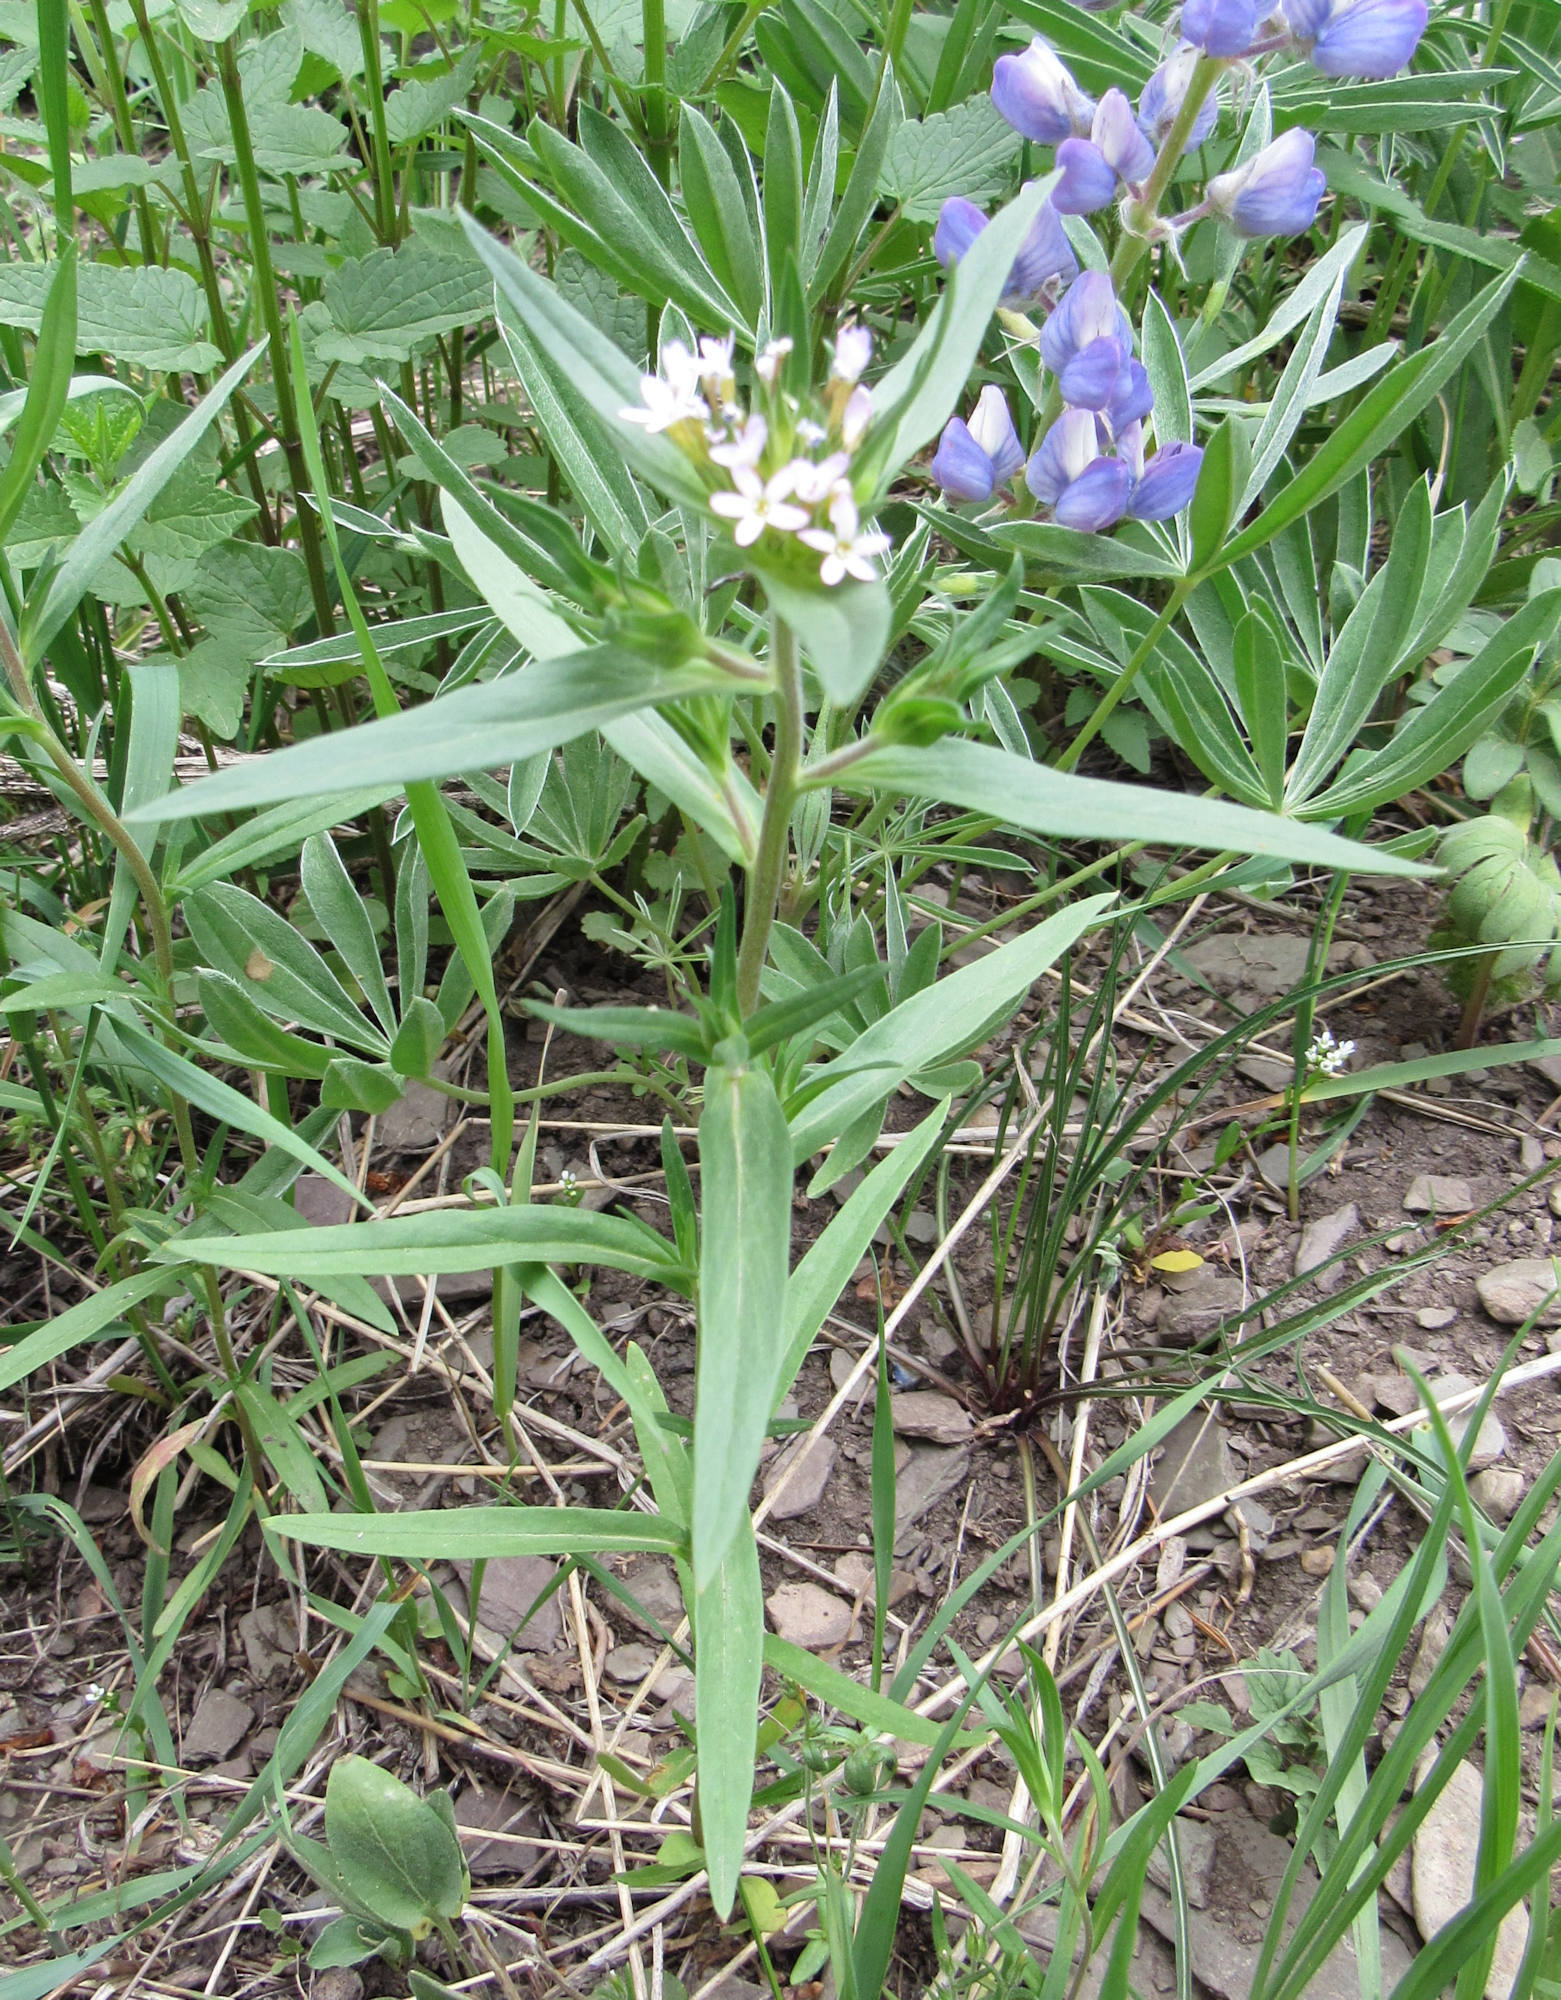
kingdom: Plantae
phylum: Tracheophyta
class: Magnoliopsida
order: Ericales
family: Polemoniaceae
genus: Collomia
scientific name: Collomia linearis
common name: Tiny trumpet
